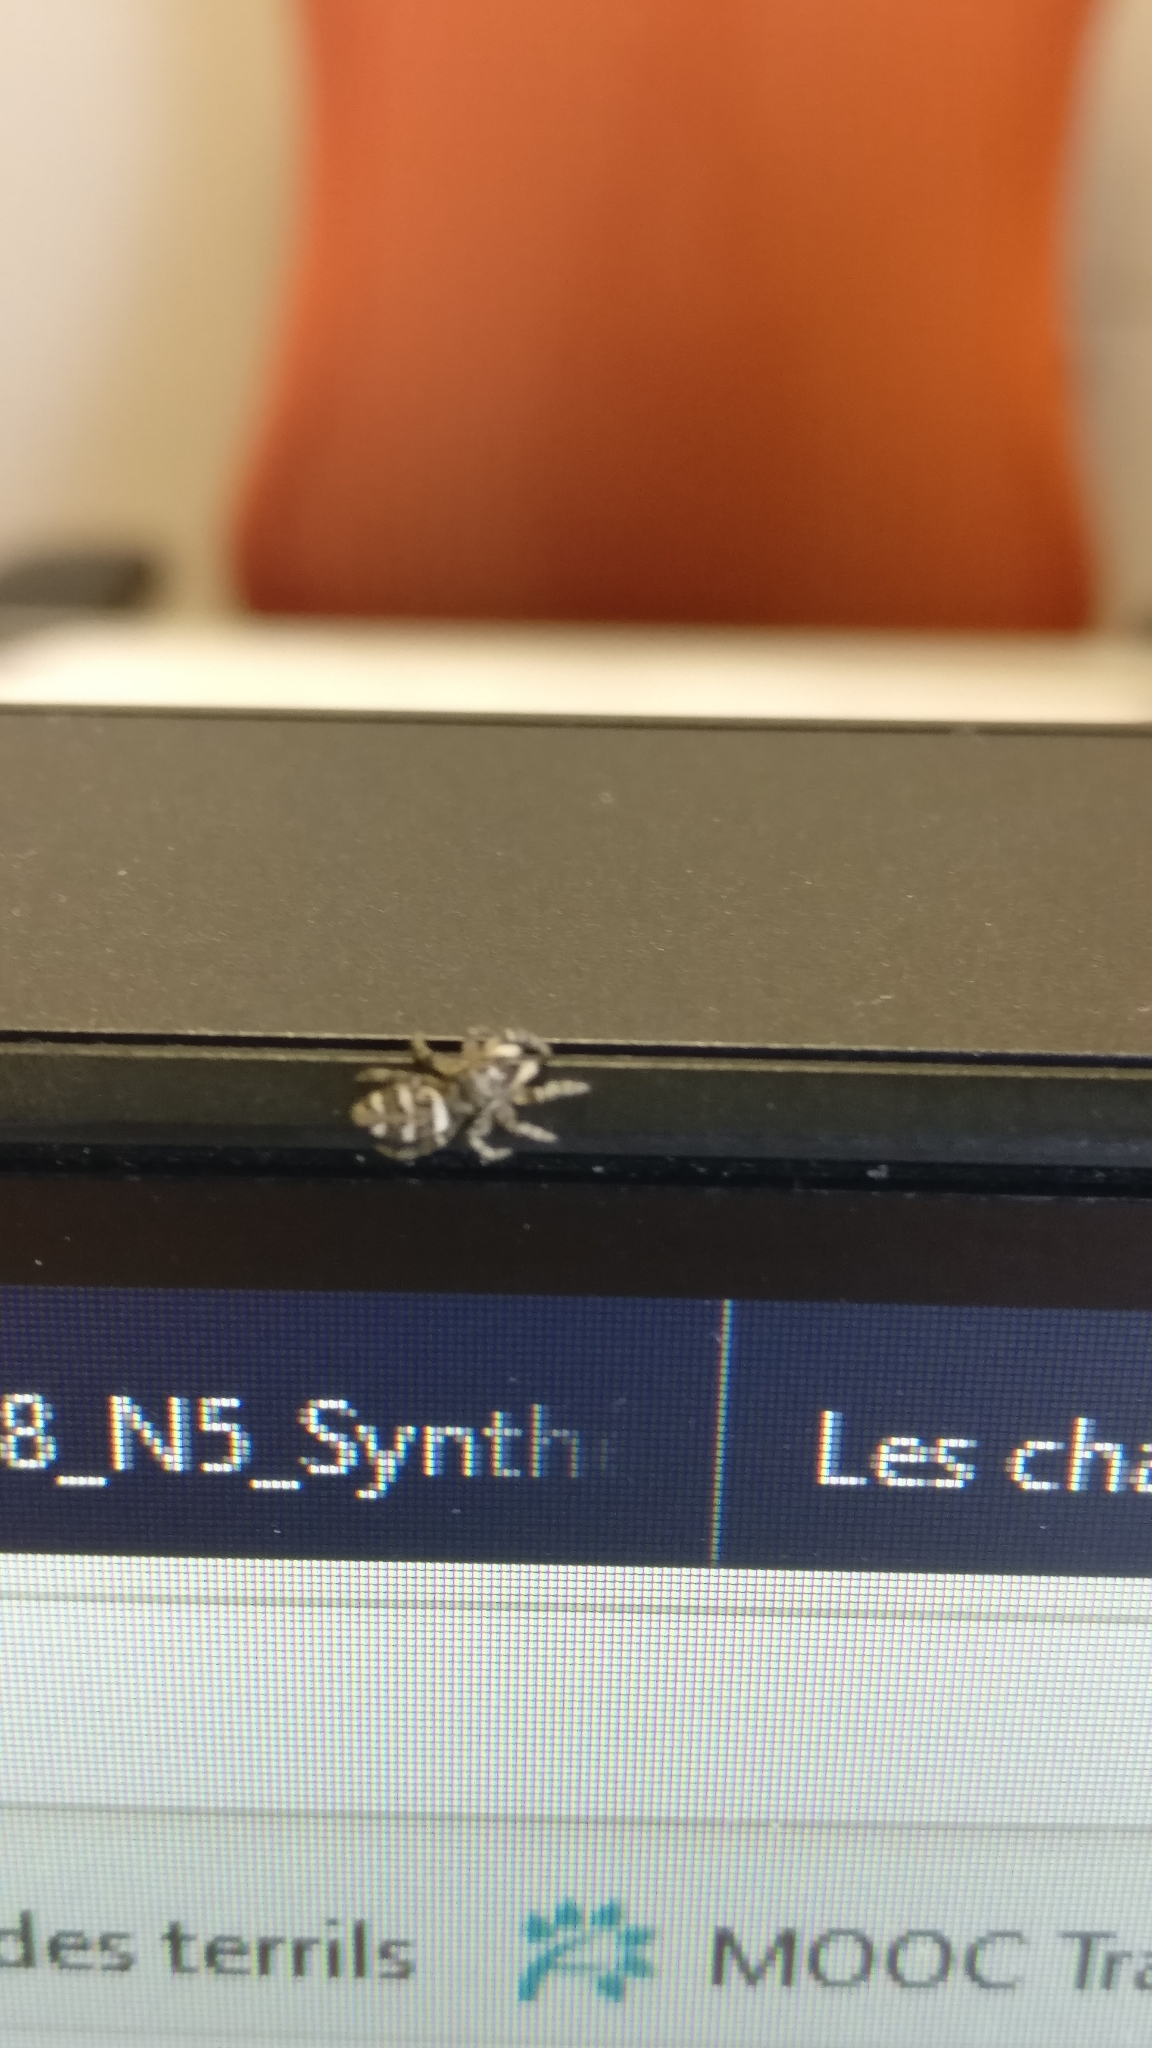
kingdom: Animalia
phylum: Arthropoda
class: Arachnida
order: Araneae
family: Salticidae
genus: Salticus
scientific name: Salticus scenicus
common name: Zebra jumper
